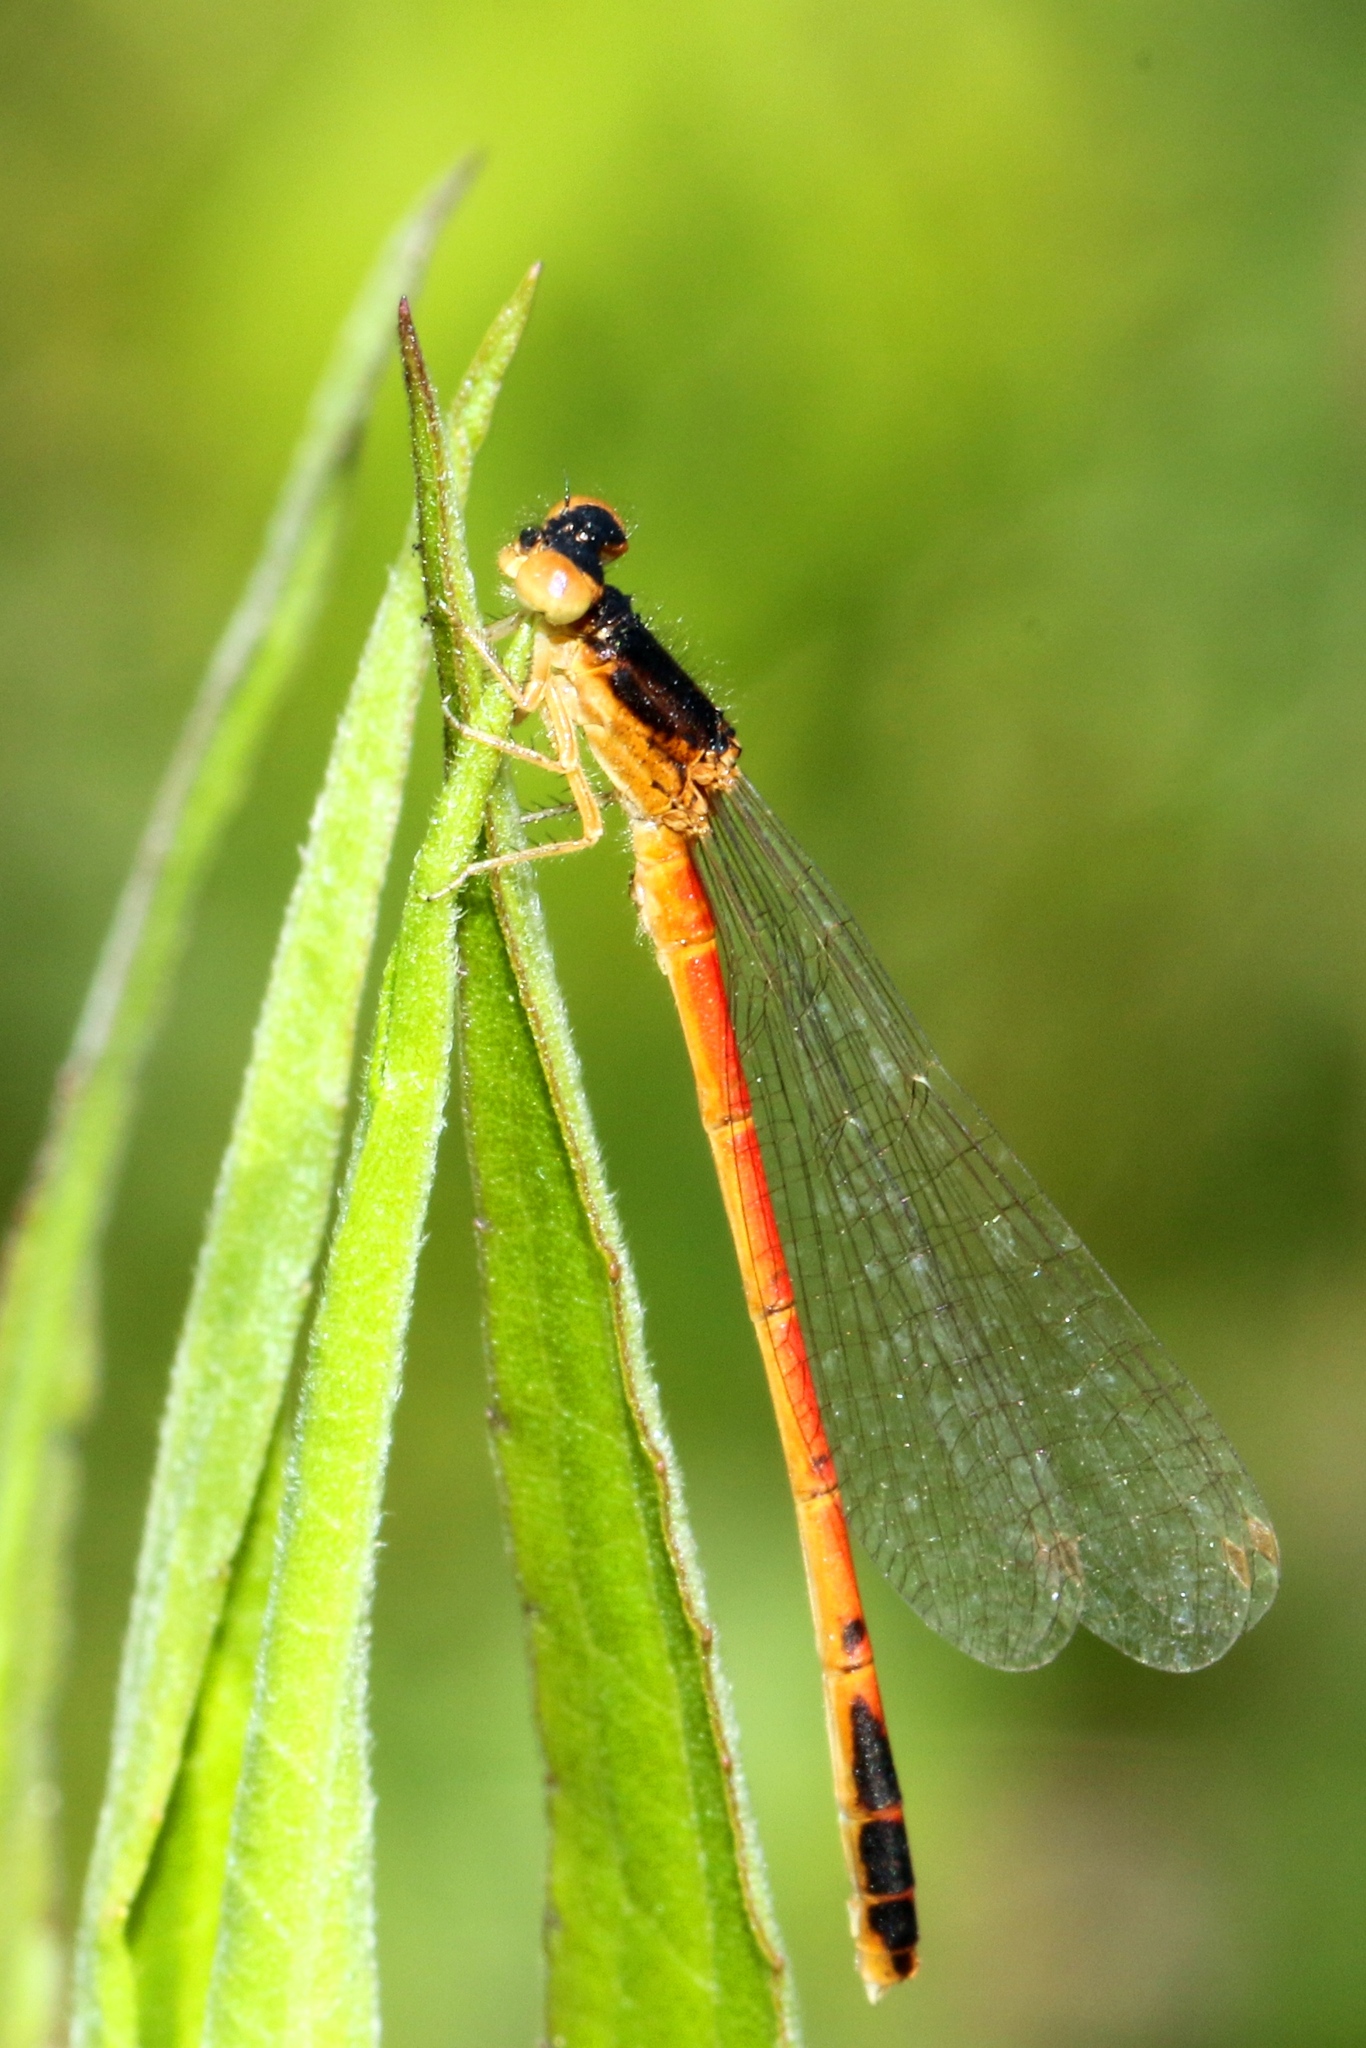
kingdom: Animalia
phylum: Arthropoda
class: Insecta
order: Odonata
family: Coenagrionidae
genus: Amphiagrion
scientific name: Amphiagrion saucium
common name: Eastern red damsel
